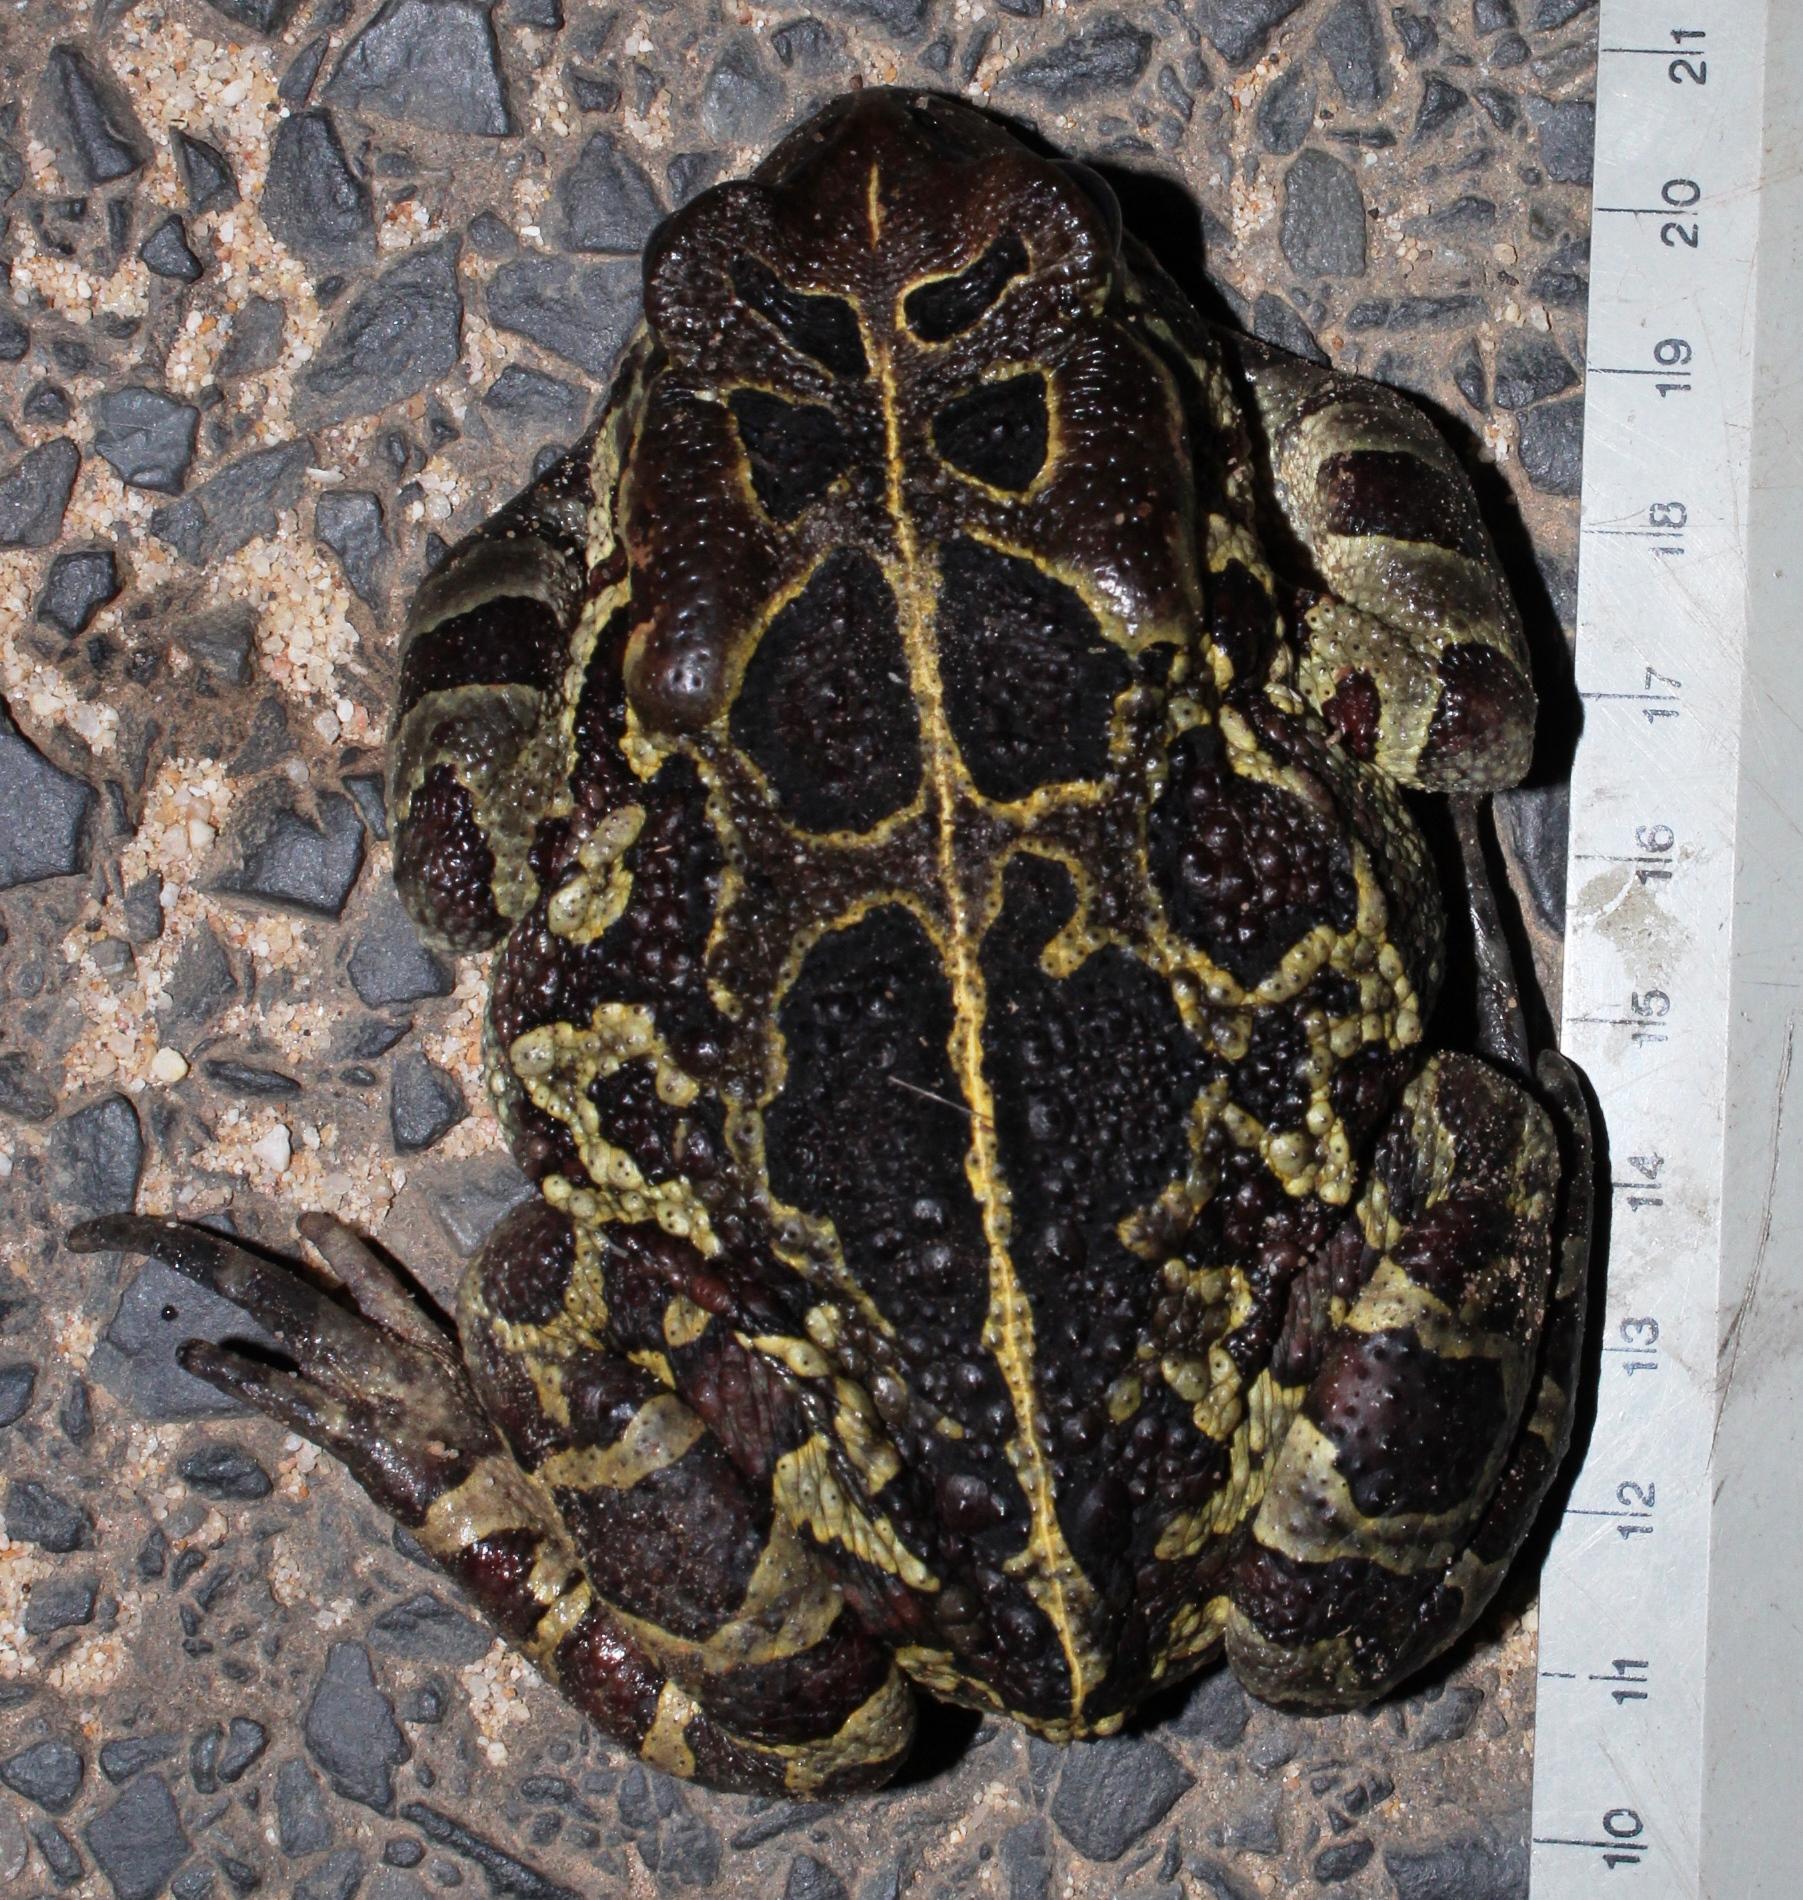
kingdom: Animalia
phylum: Chordata
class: Amphibia
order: Anura
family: Bufonidae
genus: Sclerophrys
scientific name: Sclerophrys pantherina
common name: Panther toad
